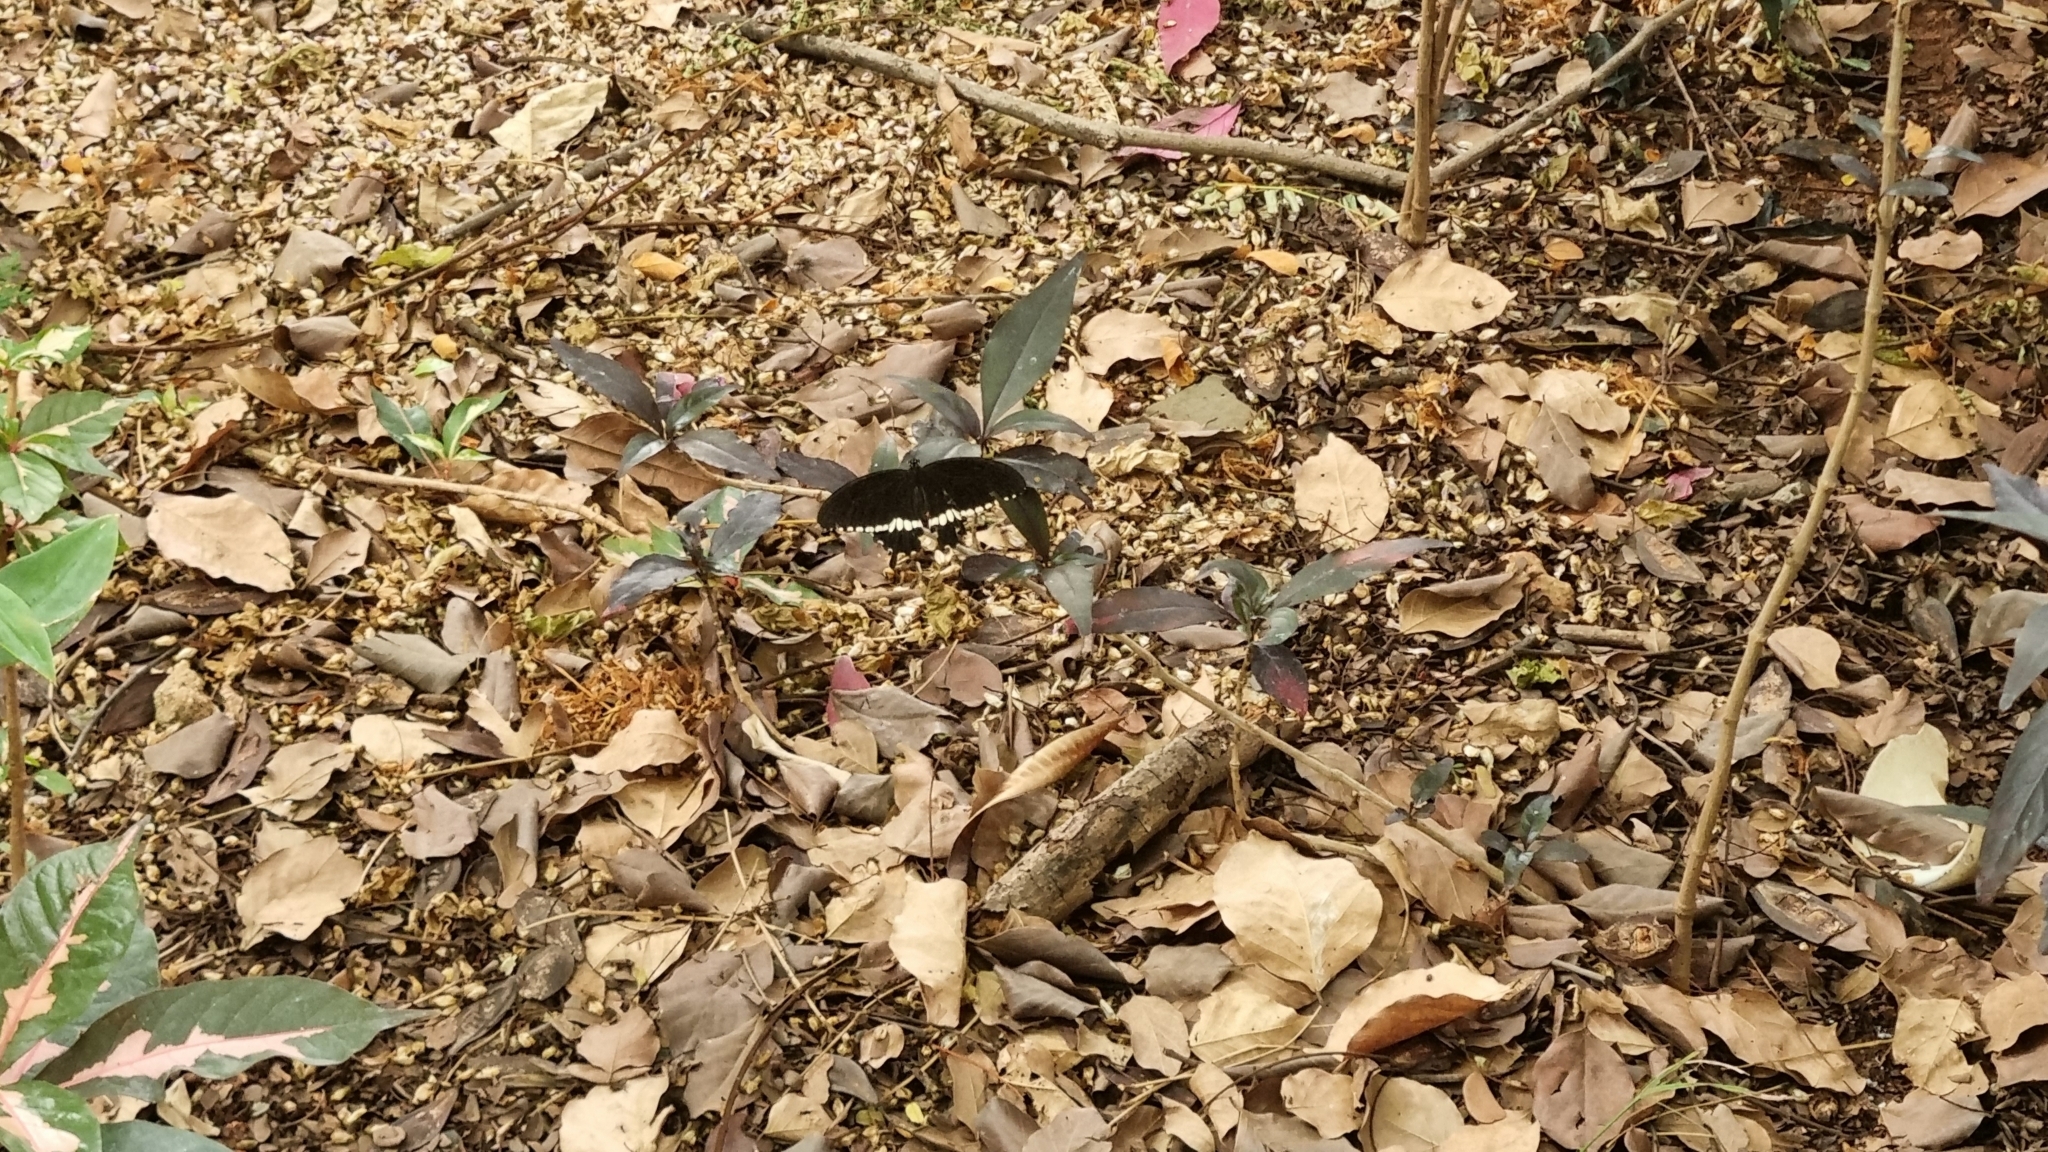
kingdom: Animalia
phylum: Arthropoda
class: Insecta
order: Lepidoptera
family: Papilionidae
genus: Papilio
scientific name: Papilio polytes
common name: Common mormon
